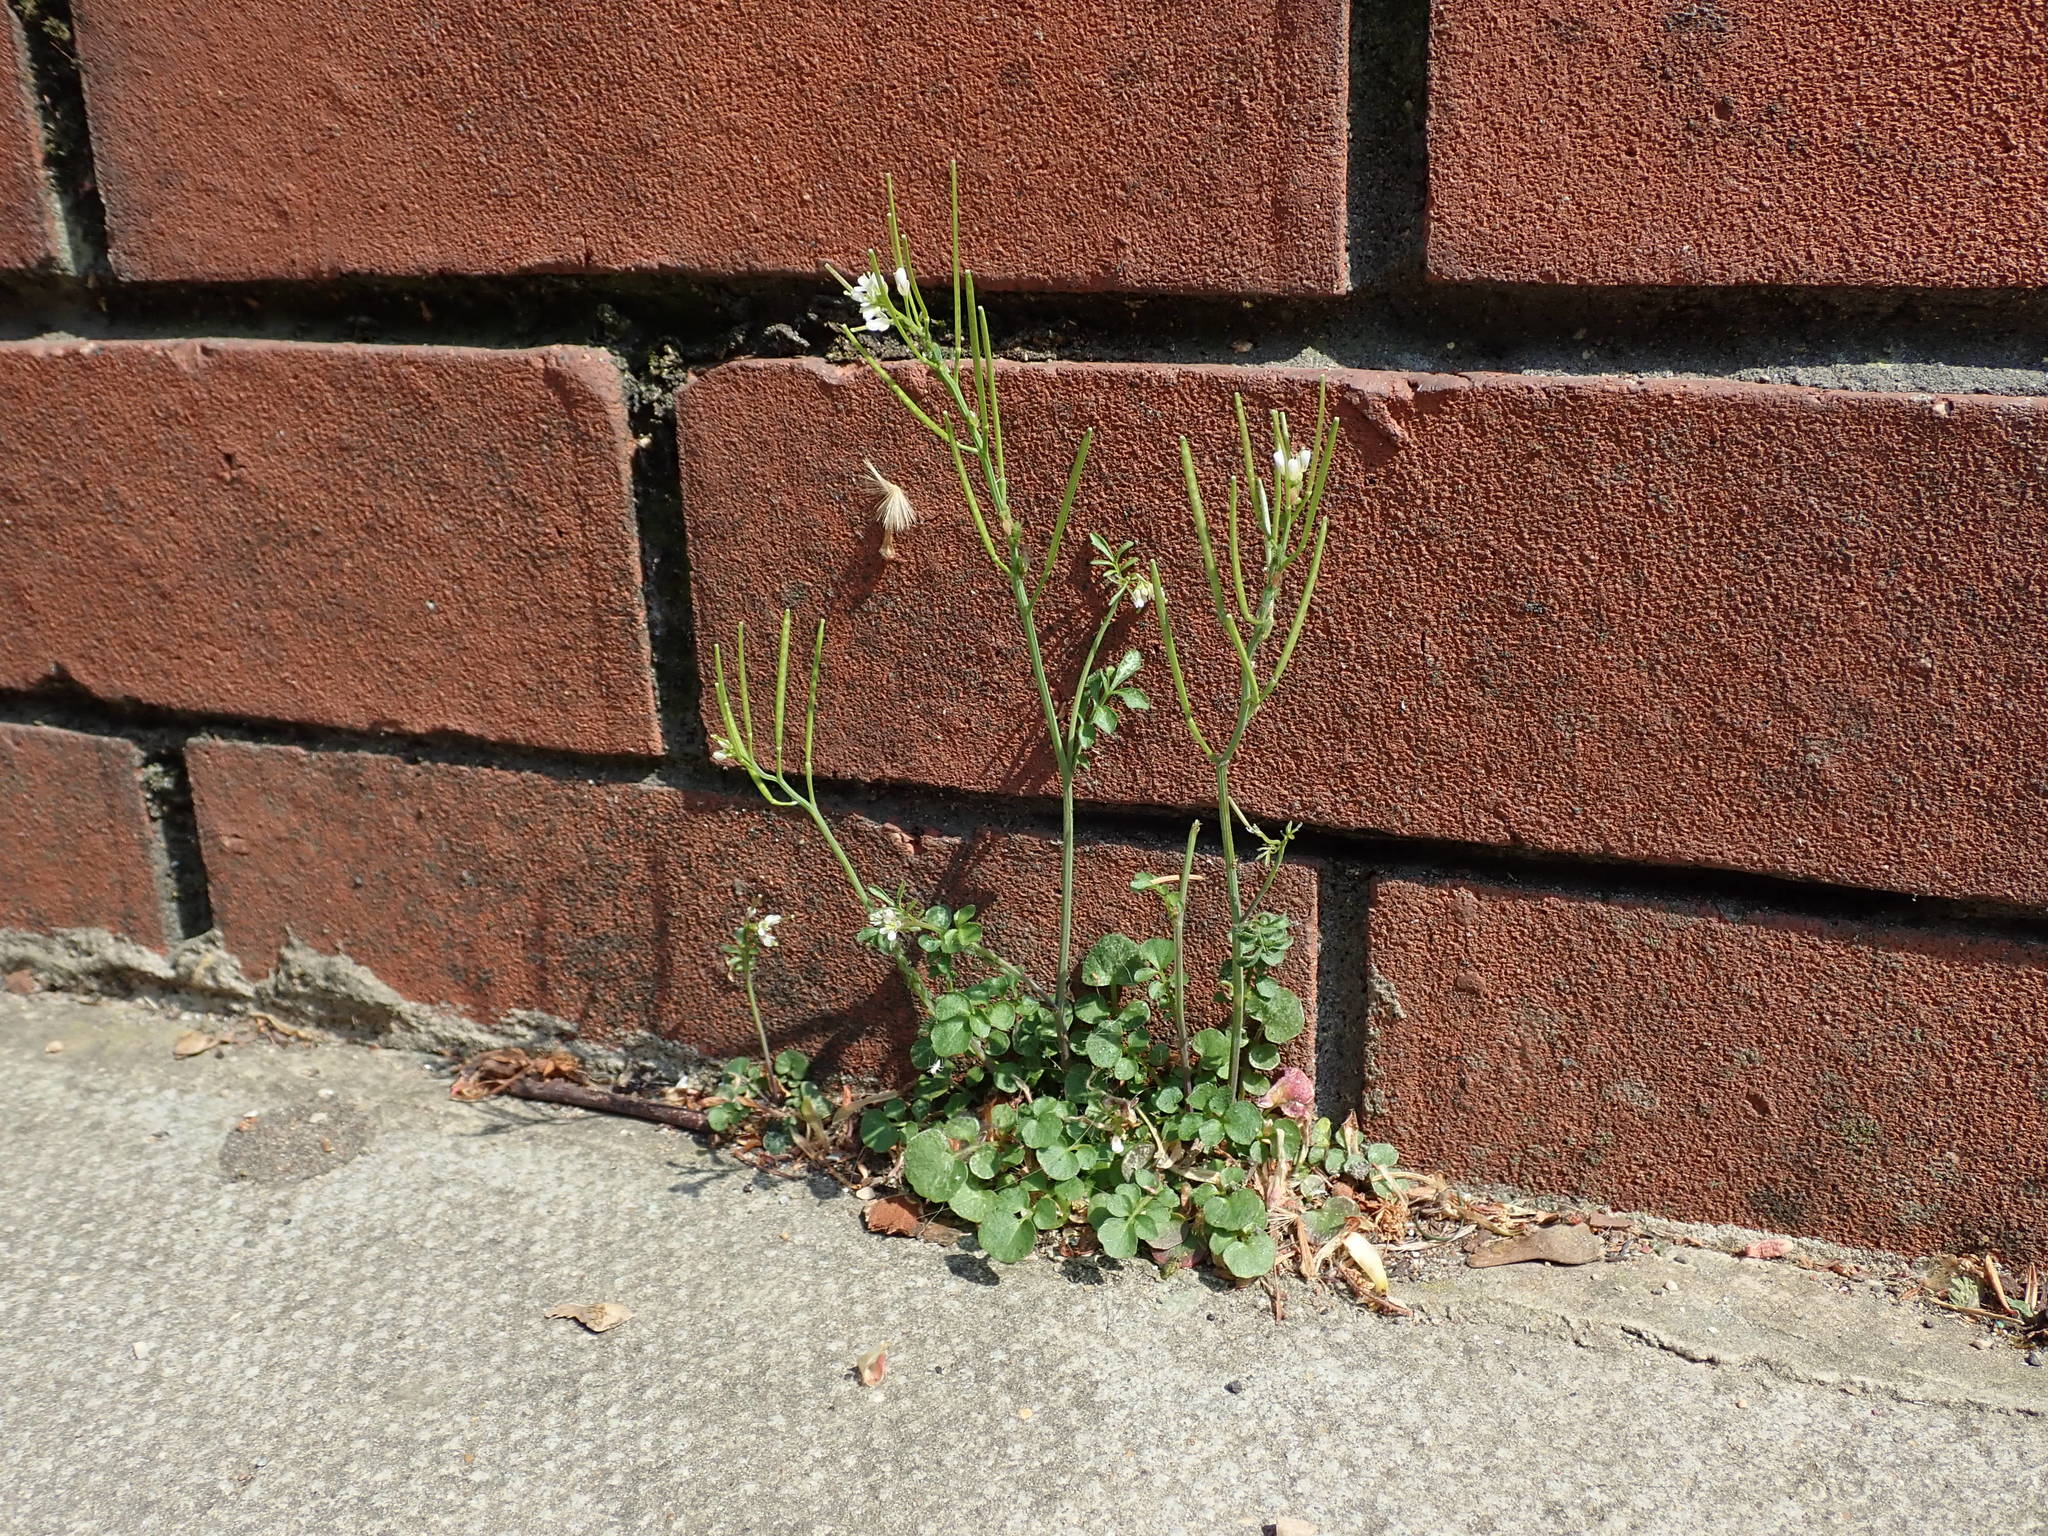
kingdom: Plantae
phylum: Tracheophyta
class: Magnoliopsida
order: Brassicales
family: Brassicaceae
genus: Cardamine
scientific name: Cardamine hirsuta
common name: Hairy bittercress
